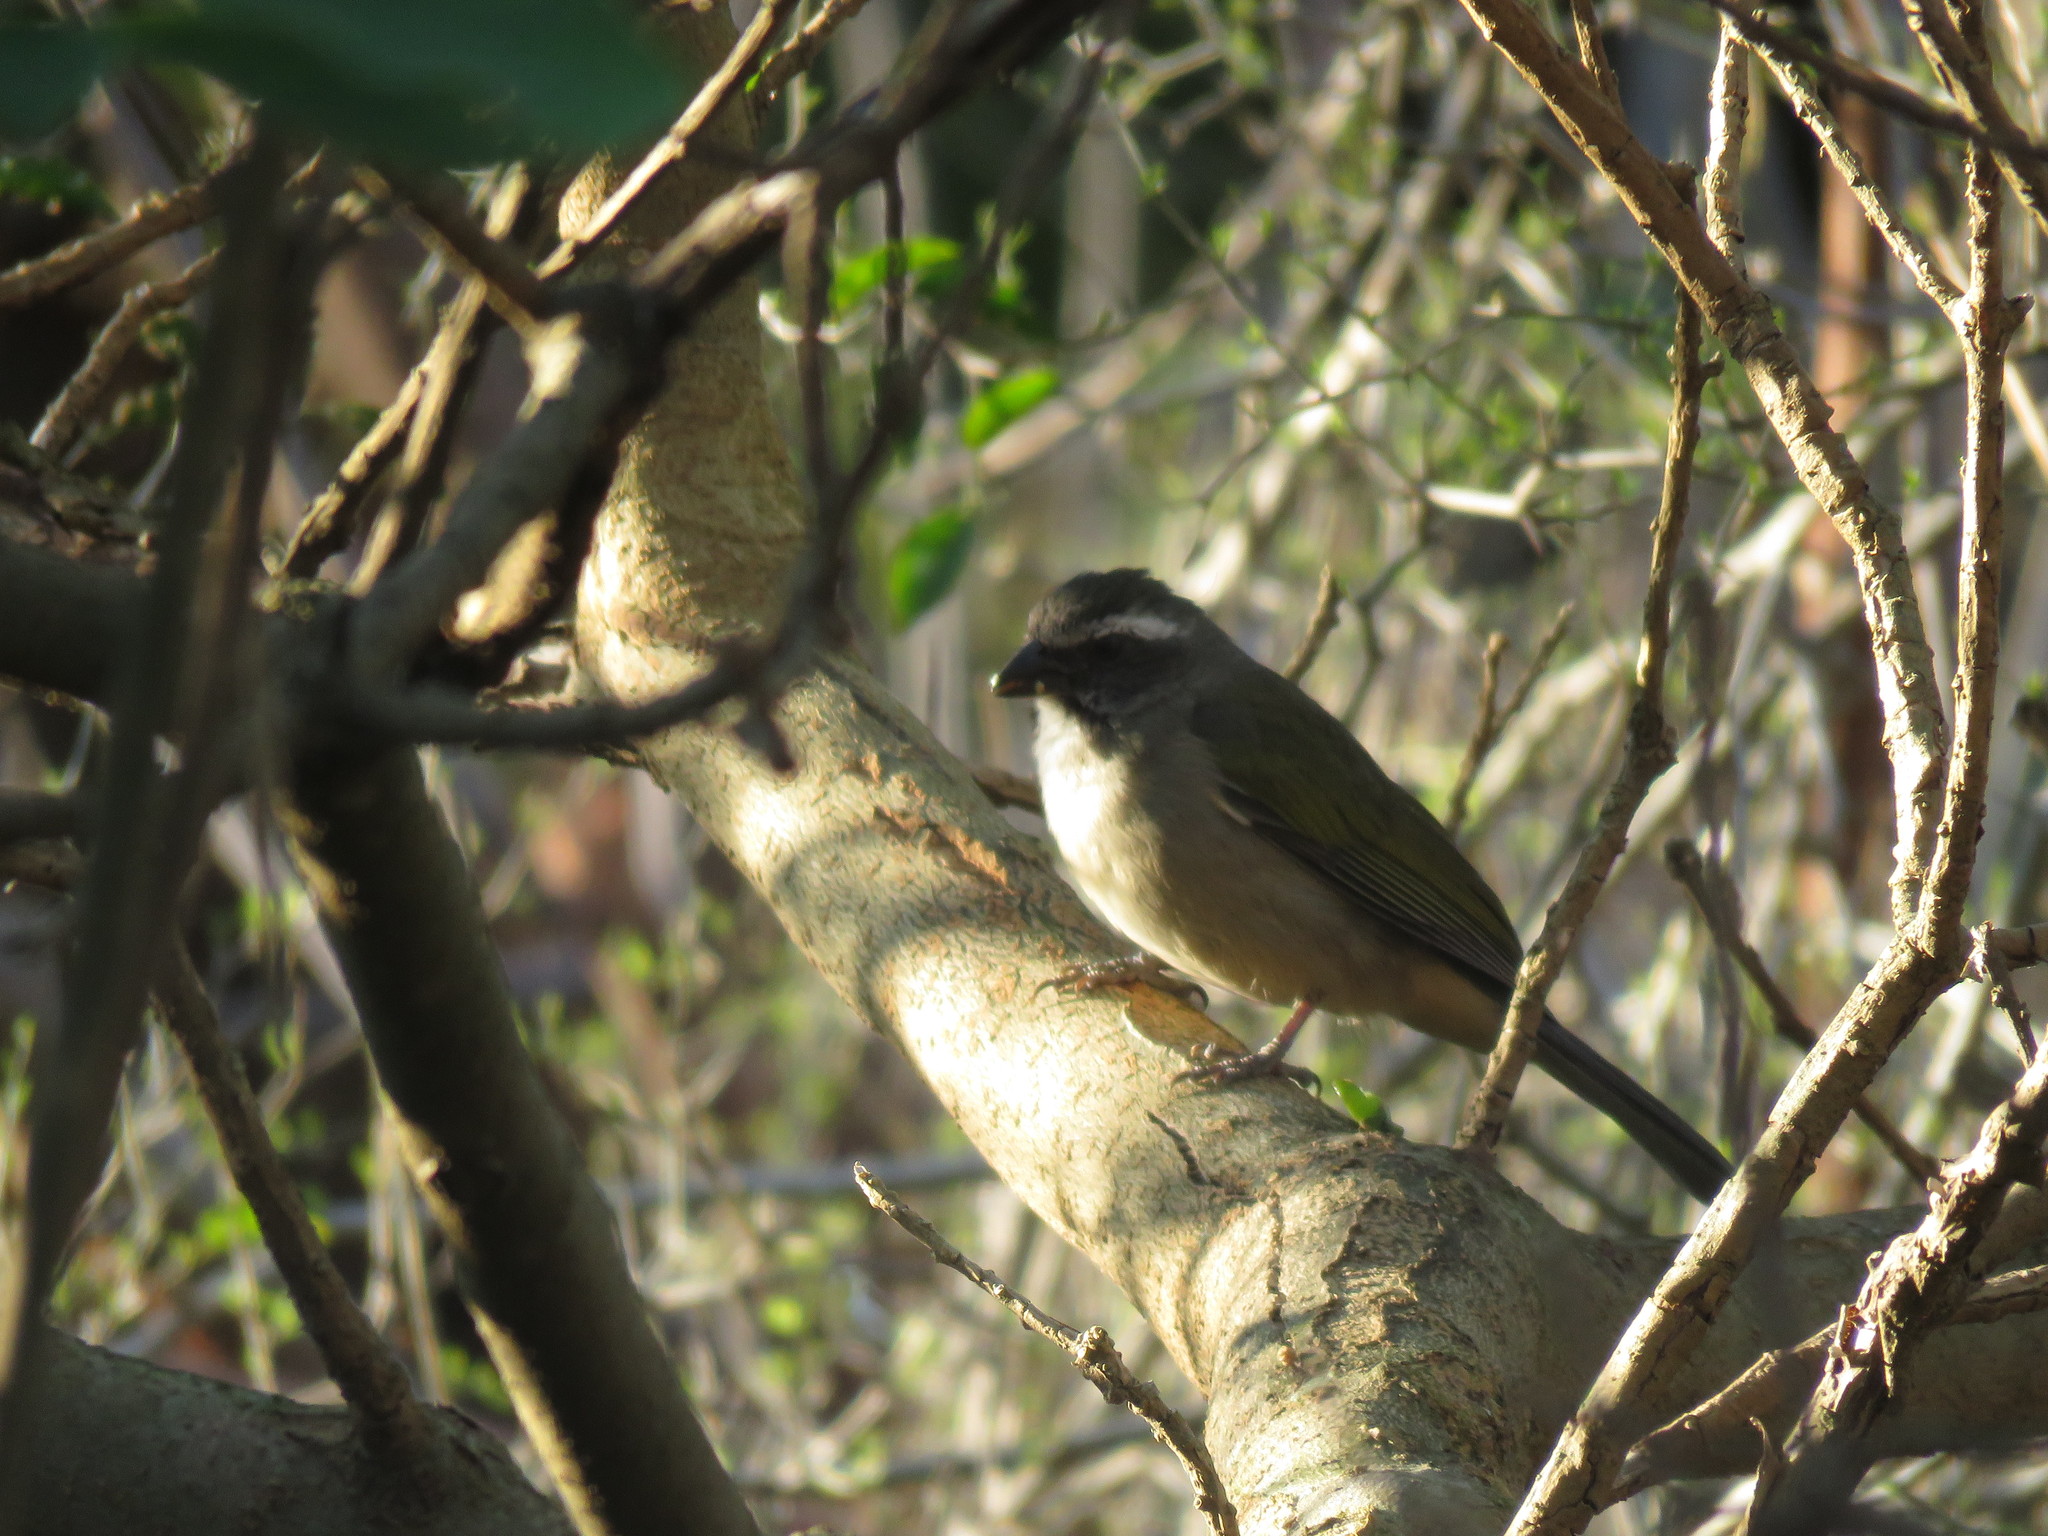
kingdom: Animalia
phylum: Chordata
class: Aves
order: Passeriformes
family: Thraupidae
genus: Saltator
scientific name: Saltator similis
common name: Green-winged saltator
